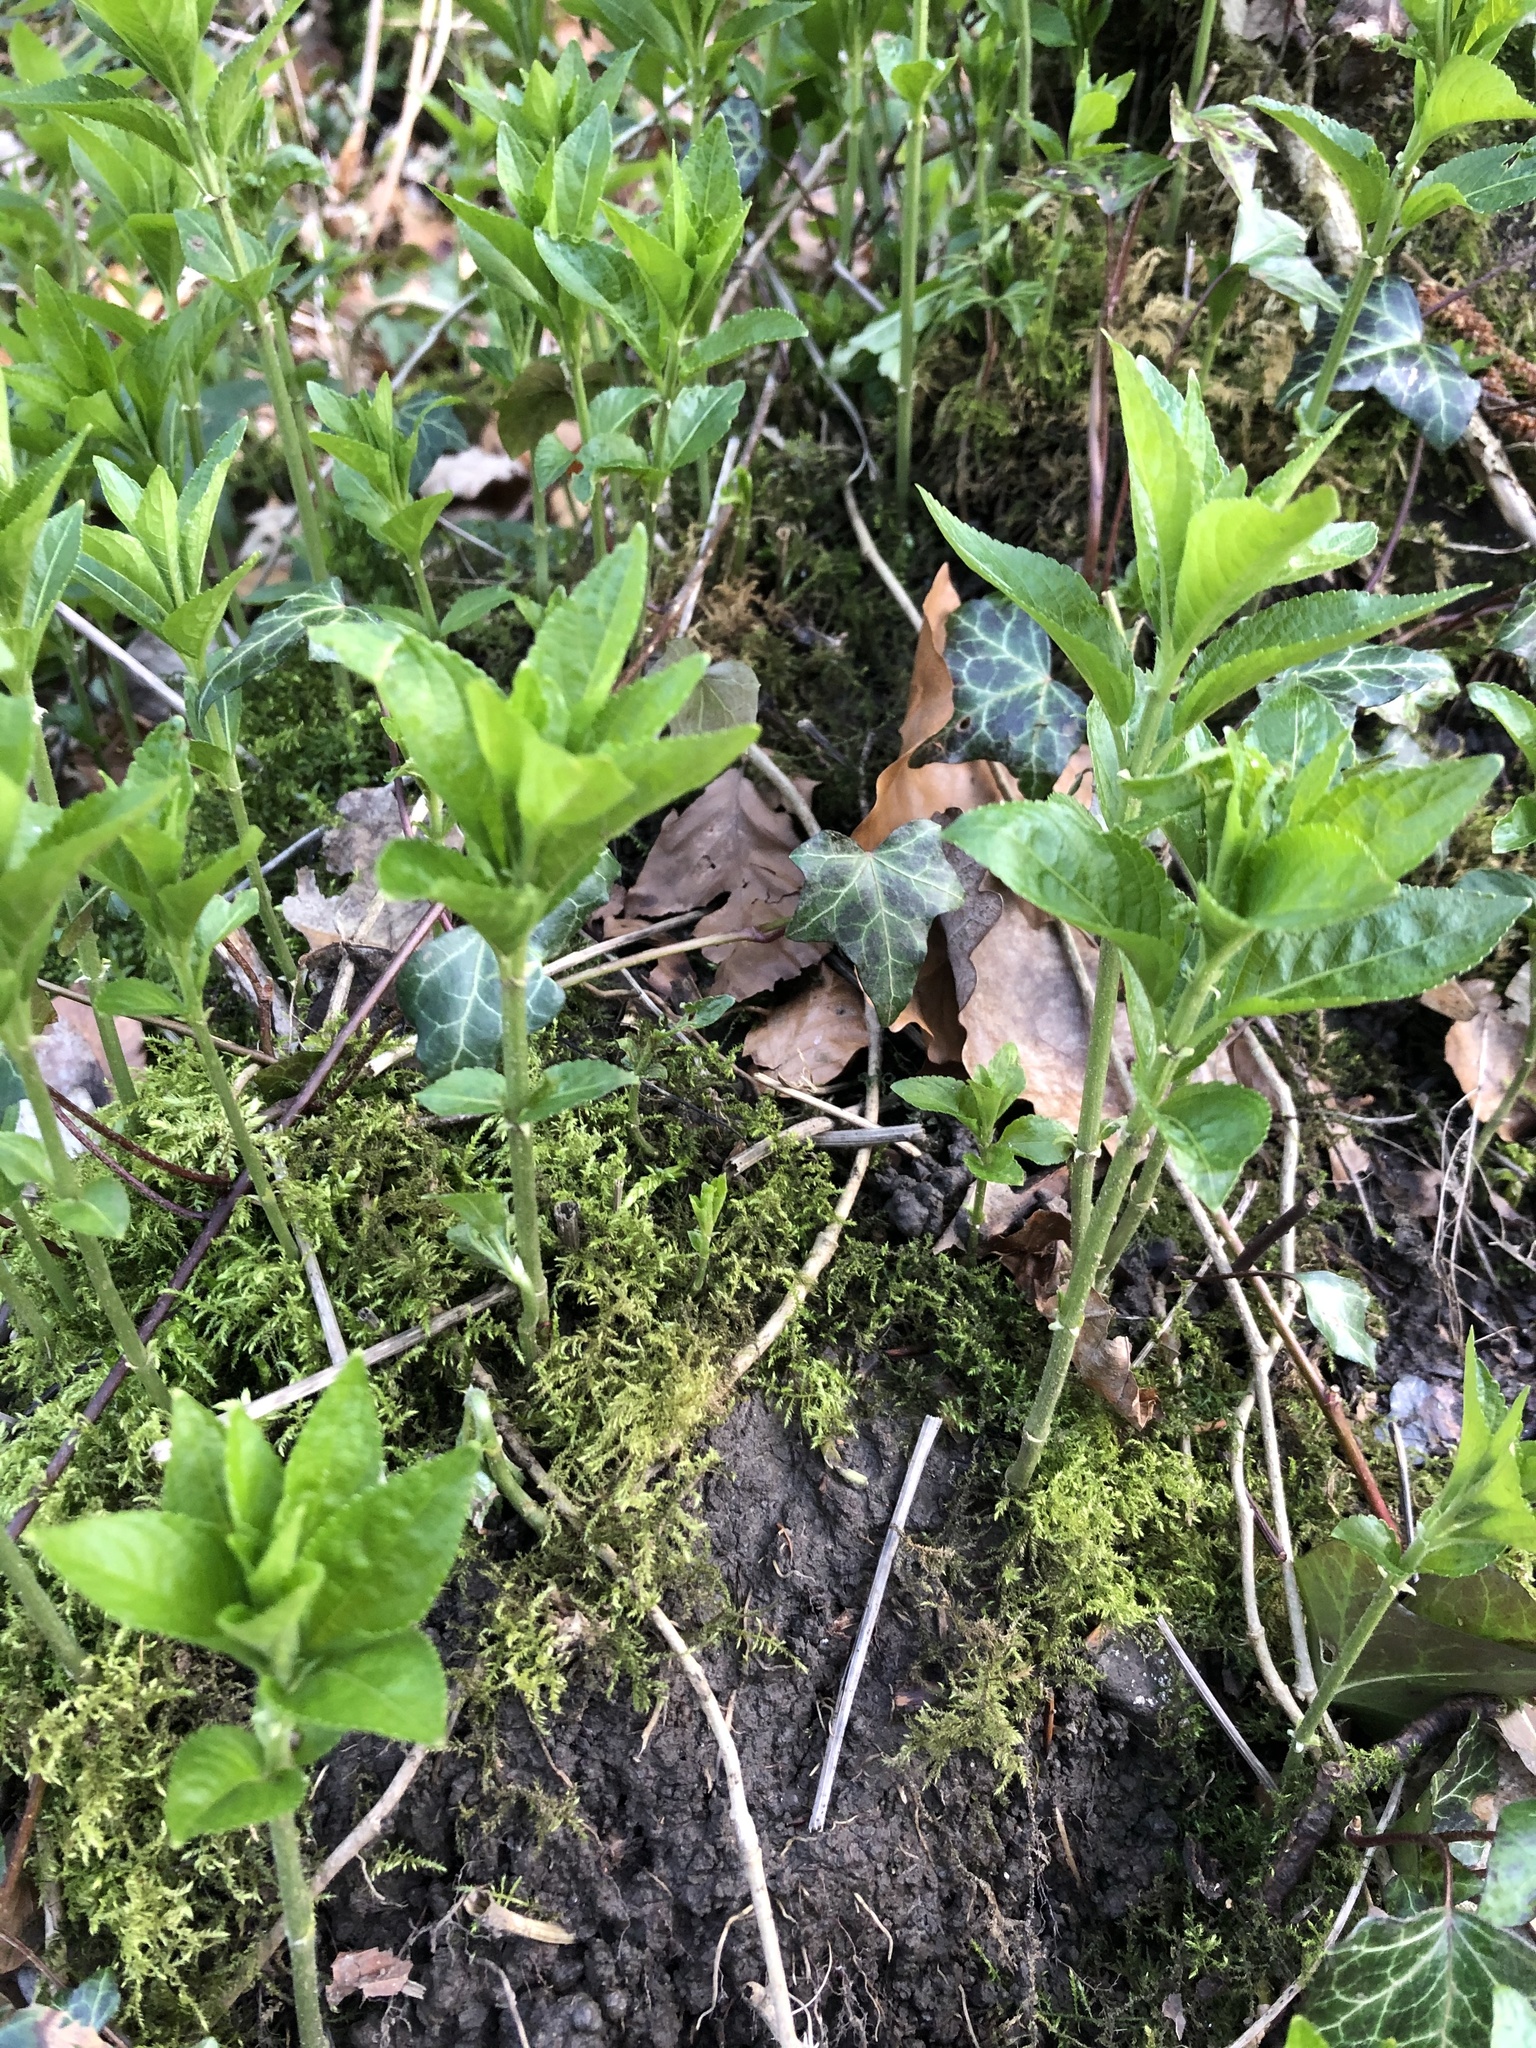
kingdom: Plantae
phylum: Tracheophyta
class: Magnoliopsida
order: Malpighiales
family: Euphorbiaceae
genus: Mercurialis
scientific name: Mercurialis perennis
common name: Dog mercury
